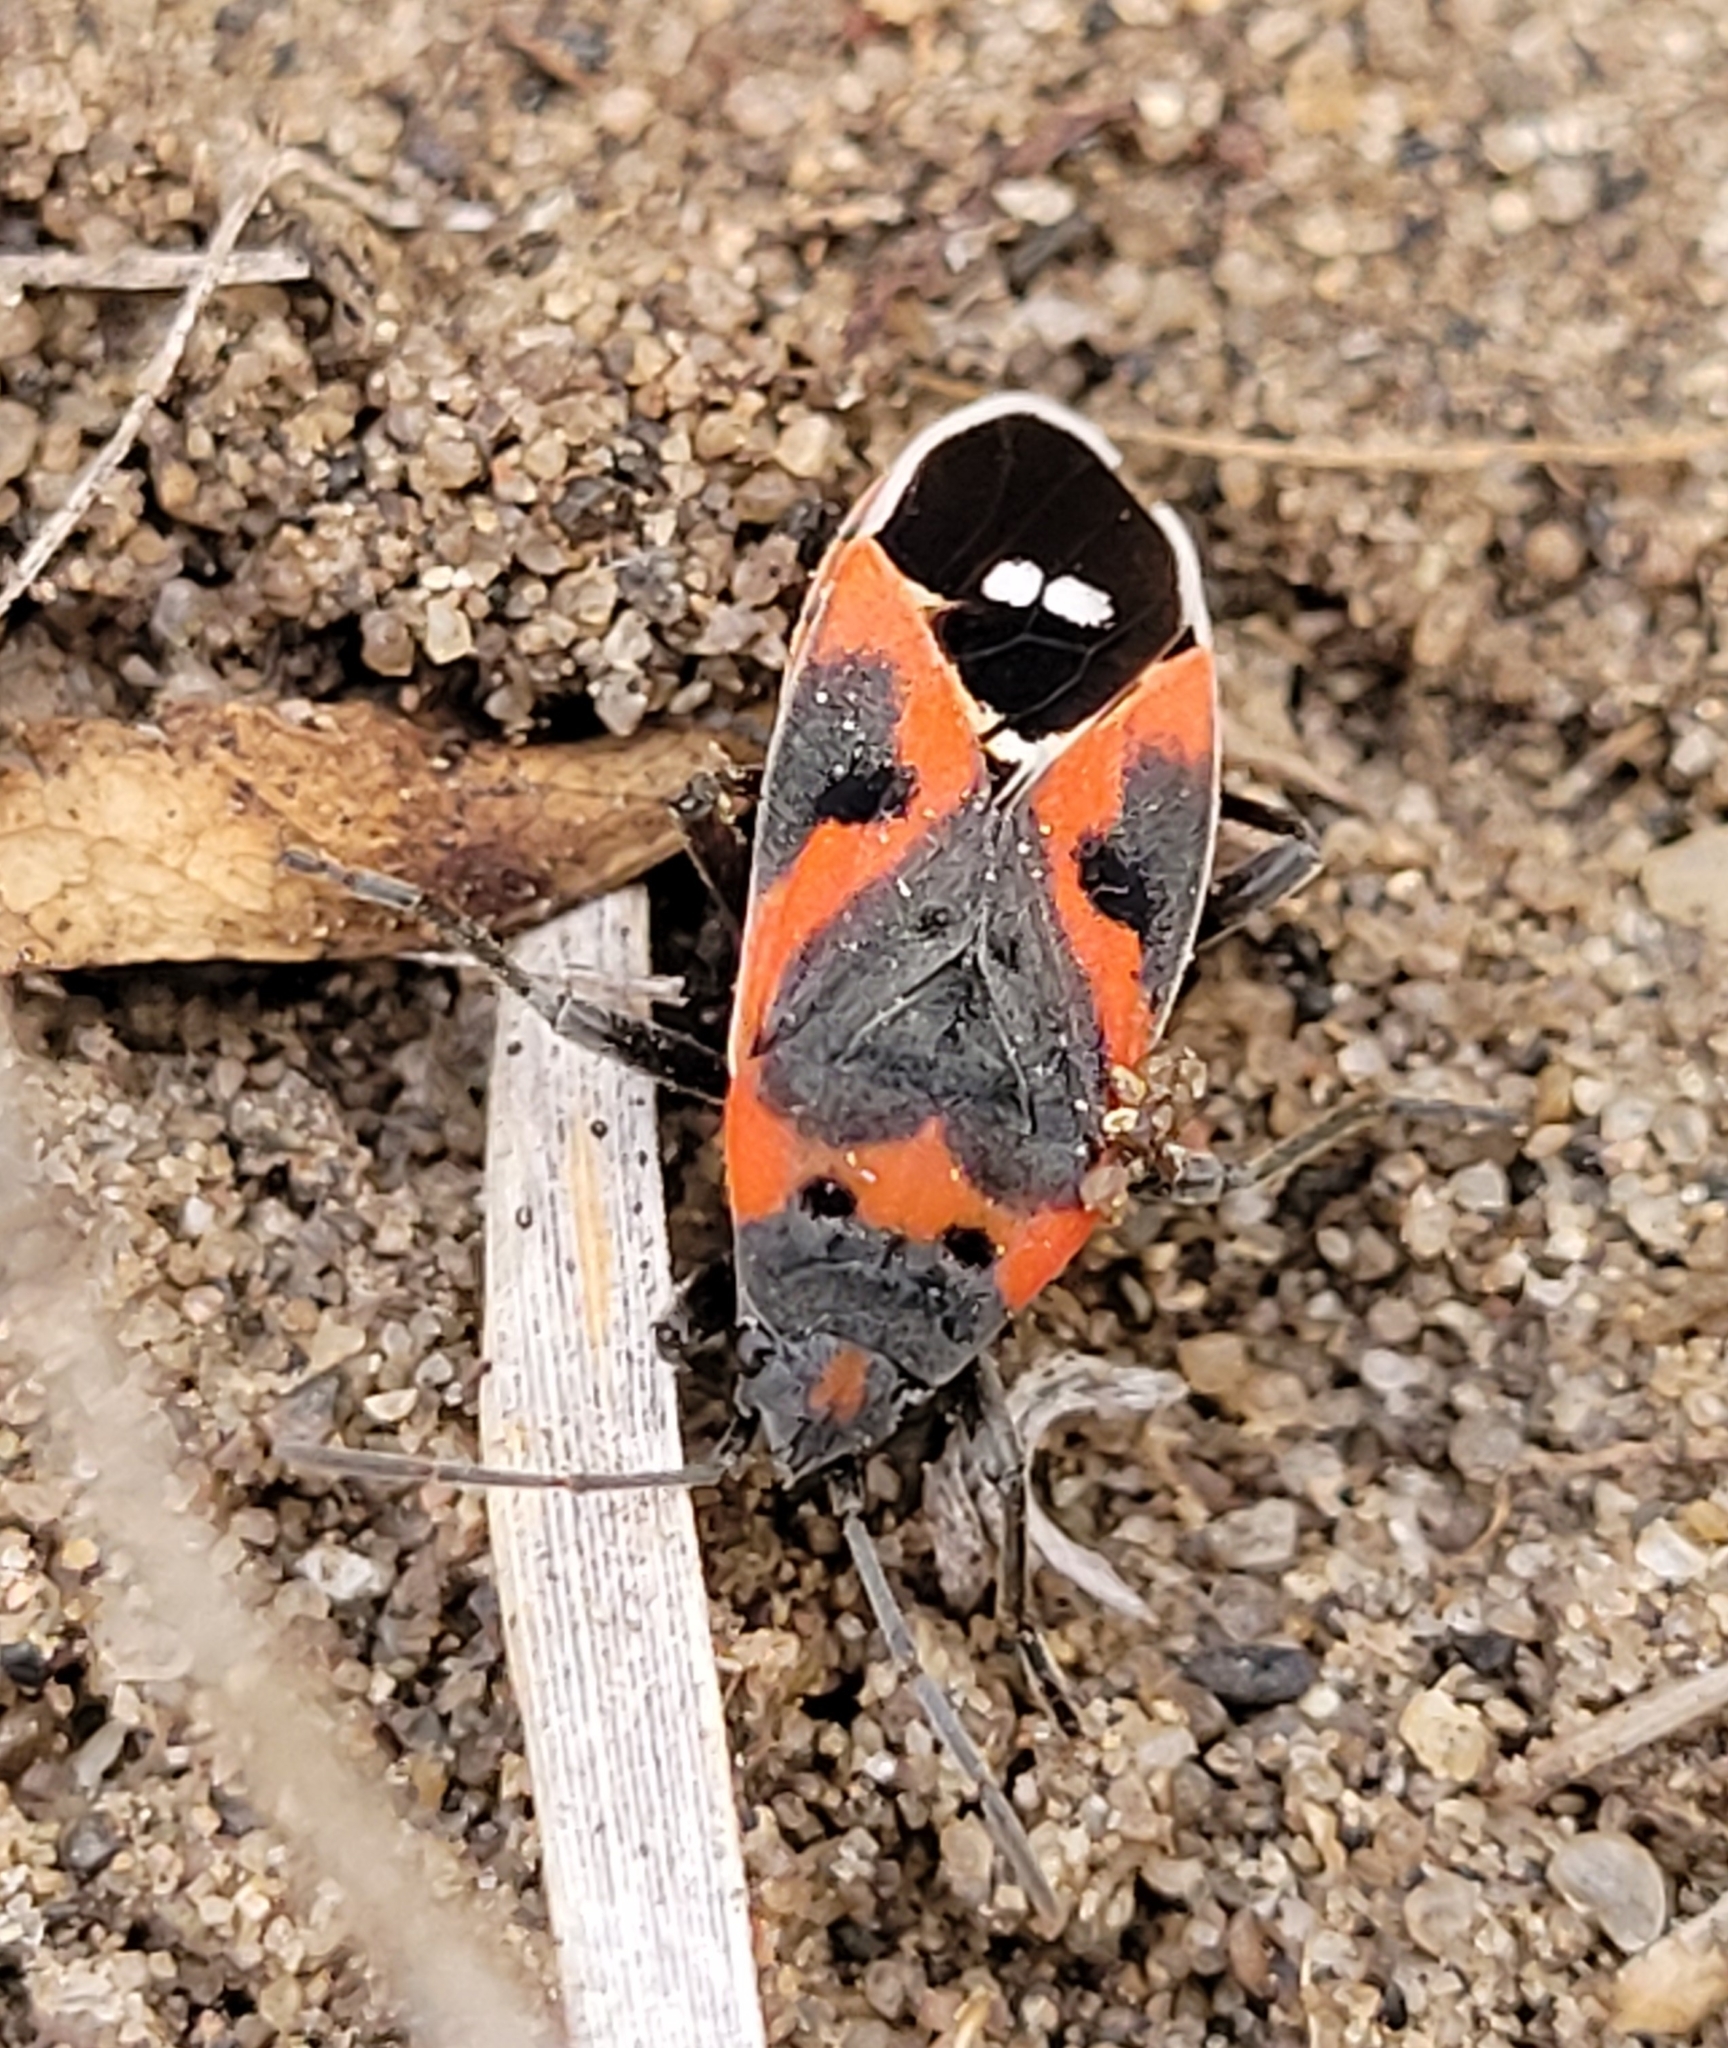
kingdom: Animalia
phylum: Arthropoda
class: Insecta
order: Hemiptera
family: Lygaeidae
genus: Lygaeus
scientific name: Lygaeus kalmii
